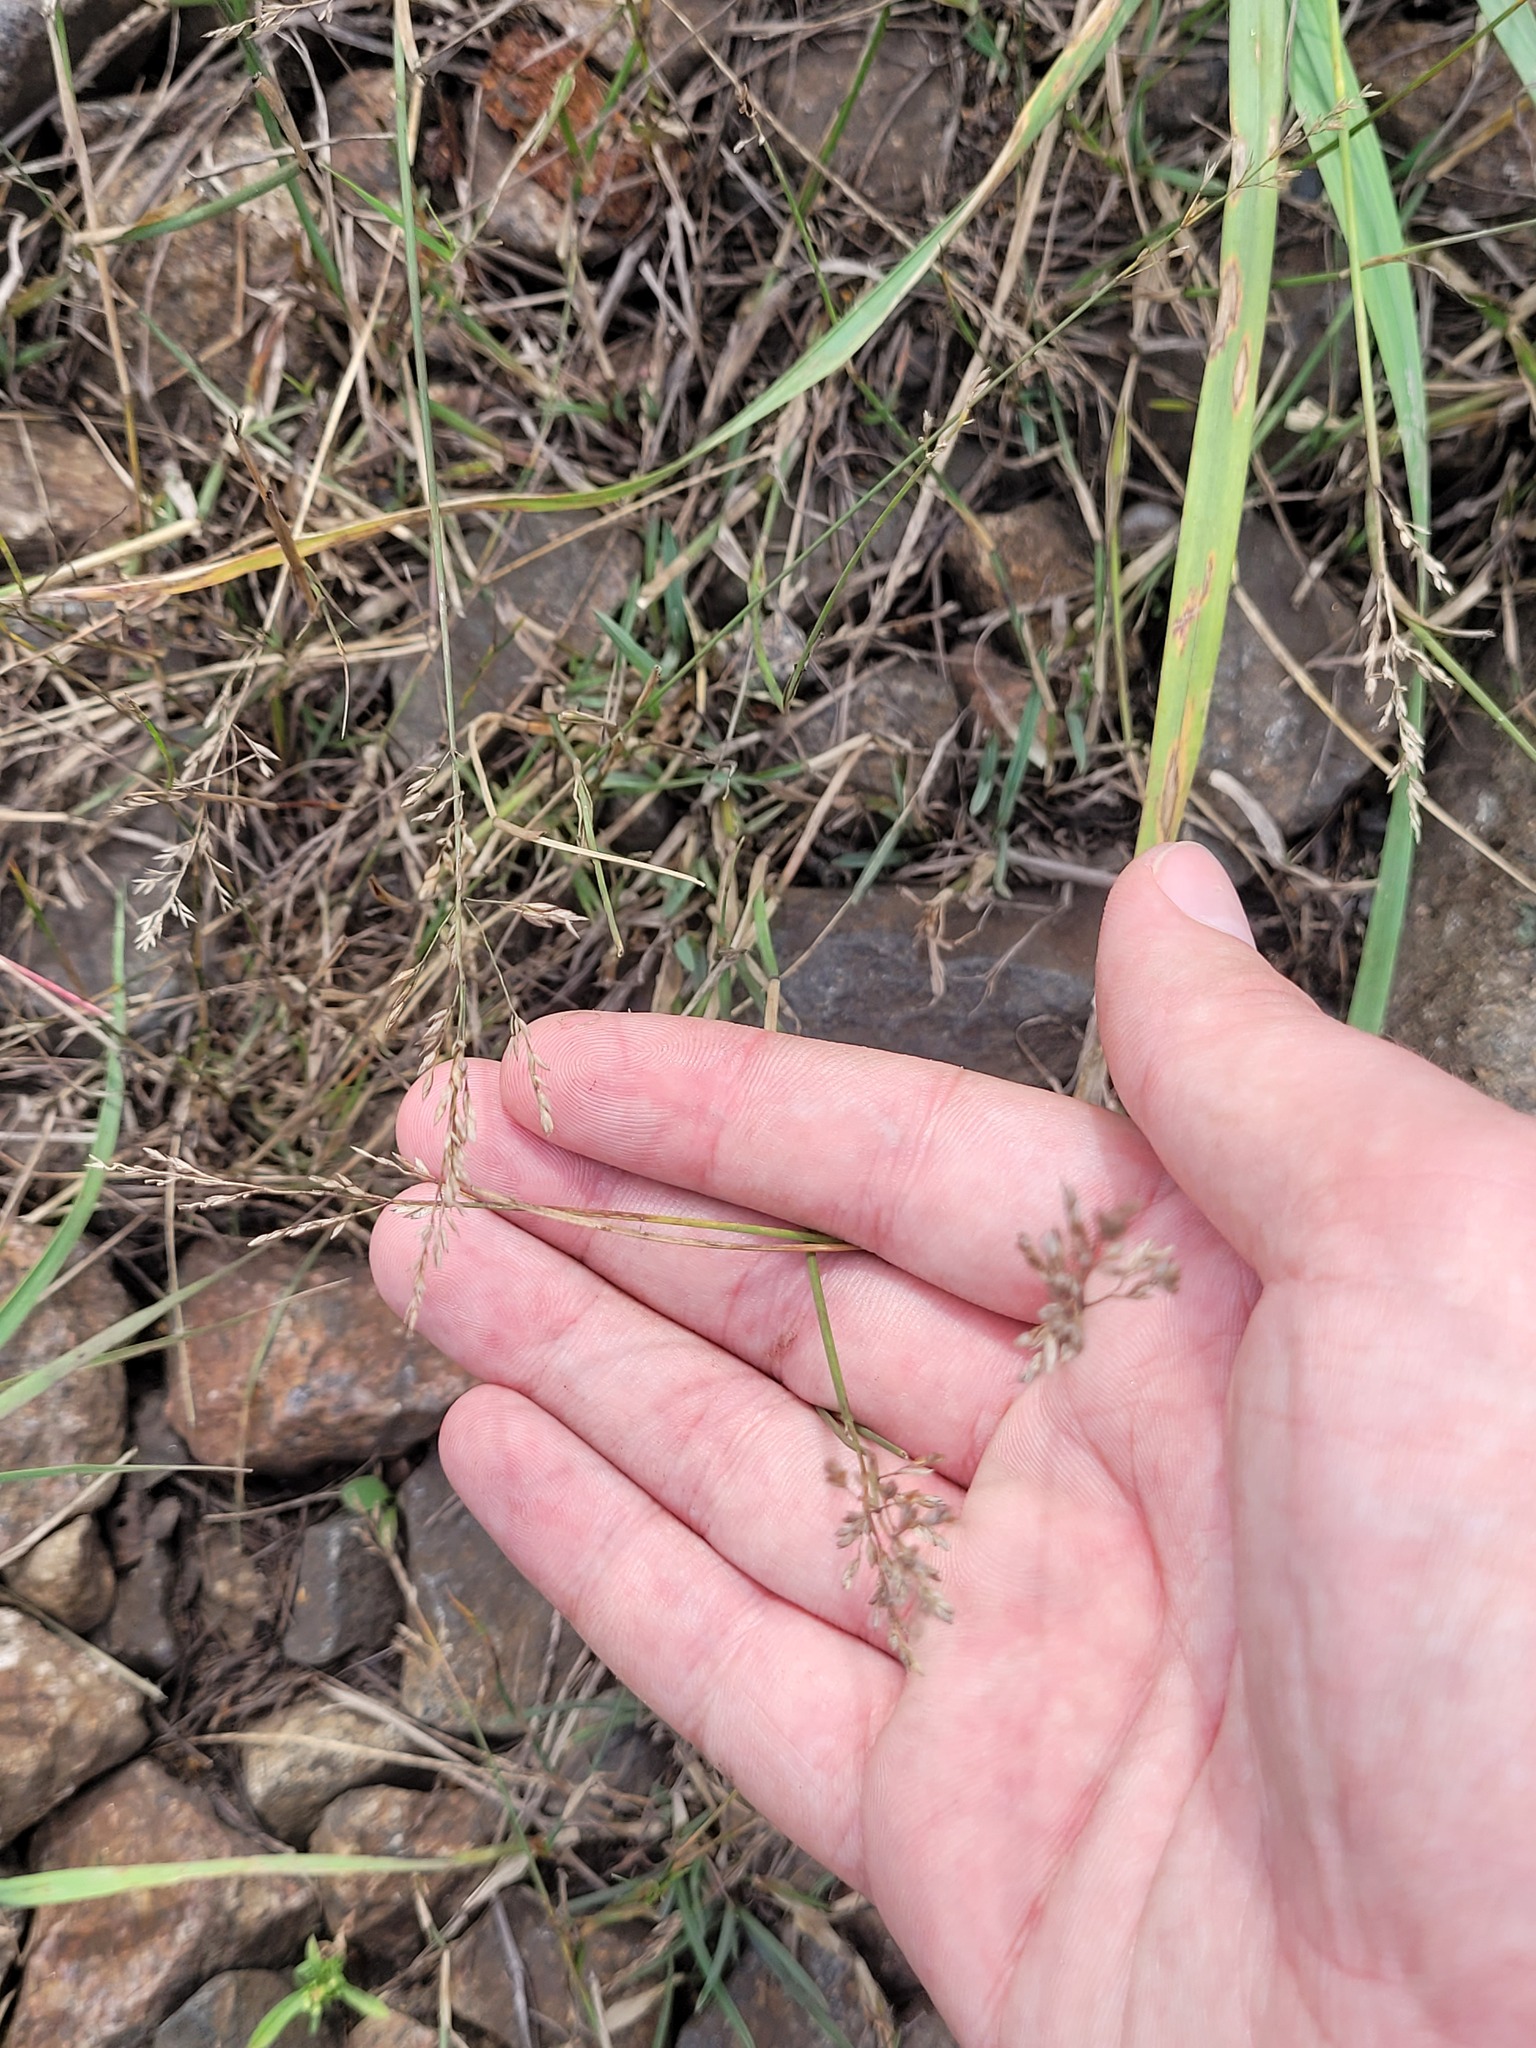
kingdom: Plantae
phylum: Tracheophyta
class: Liliopsida
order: Poales
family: Poaceae
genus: Poa
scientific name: Poa compressa
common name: Canada bluegrass
